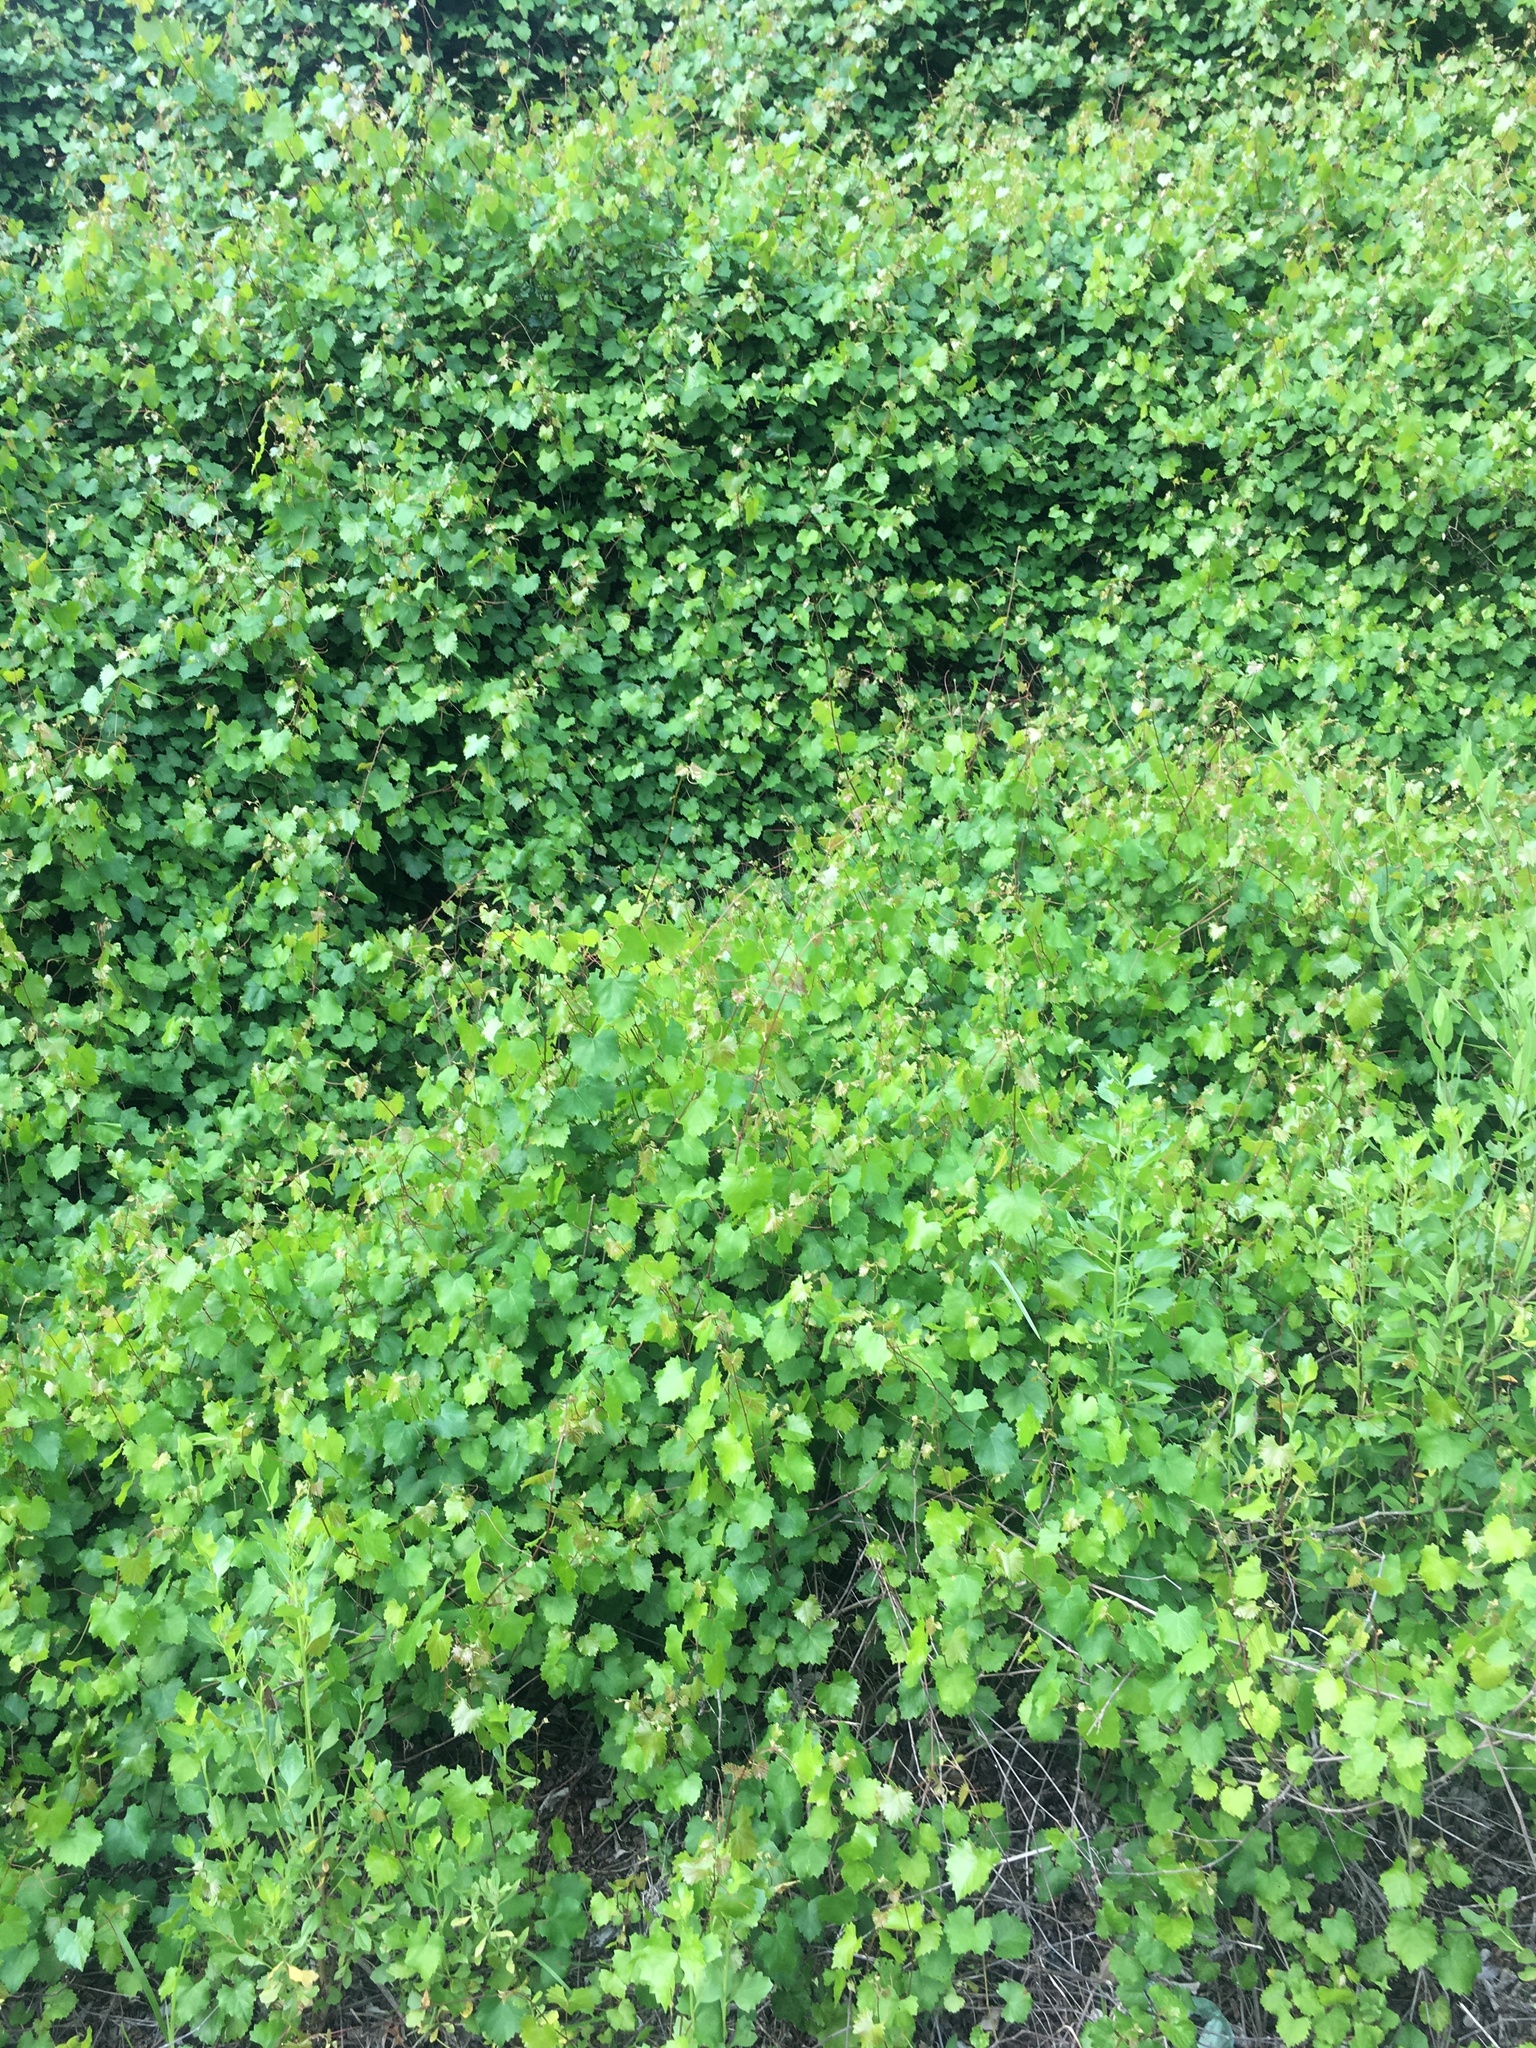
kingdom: Plantae
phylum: Tracheophyta
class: Magnoliopsida
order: Vitales
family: Vitaceae
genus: Vitis
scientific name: Vitis rotundifolia
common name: Muscadine grape
